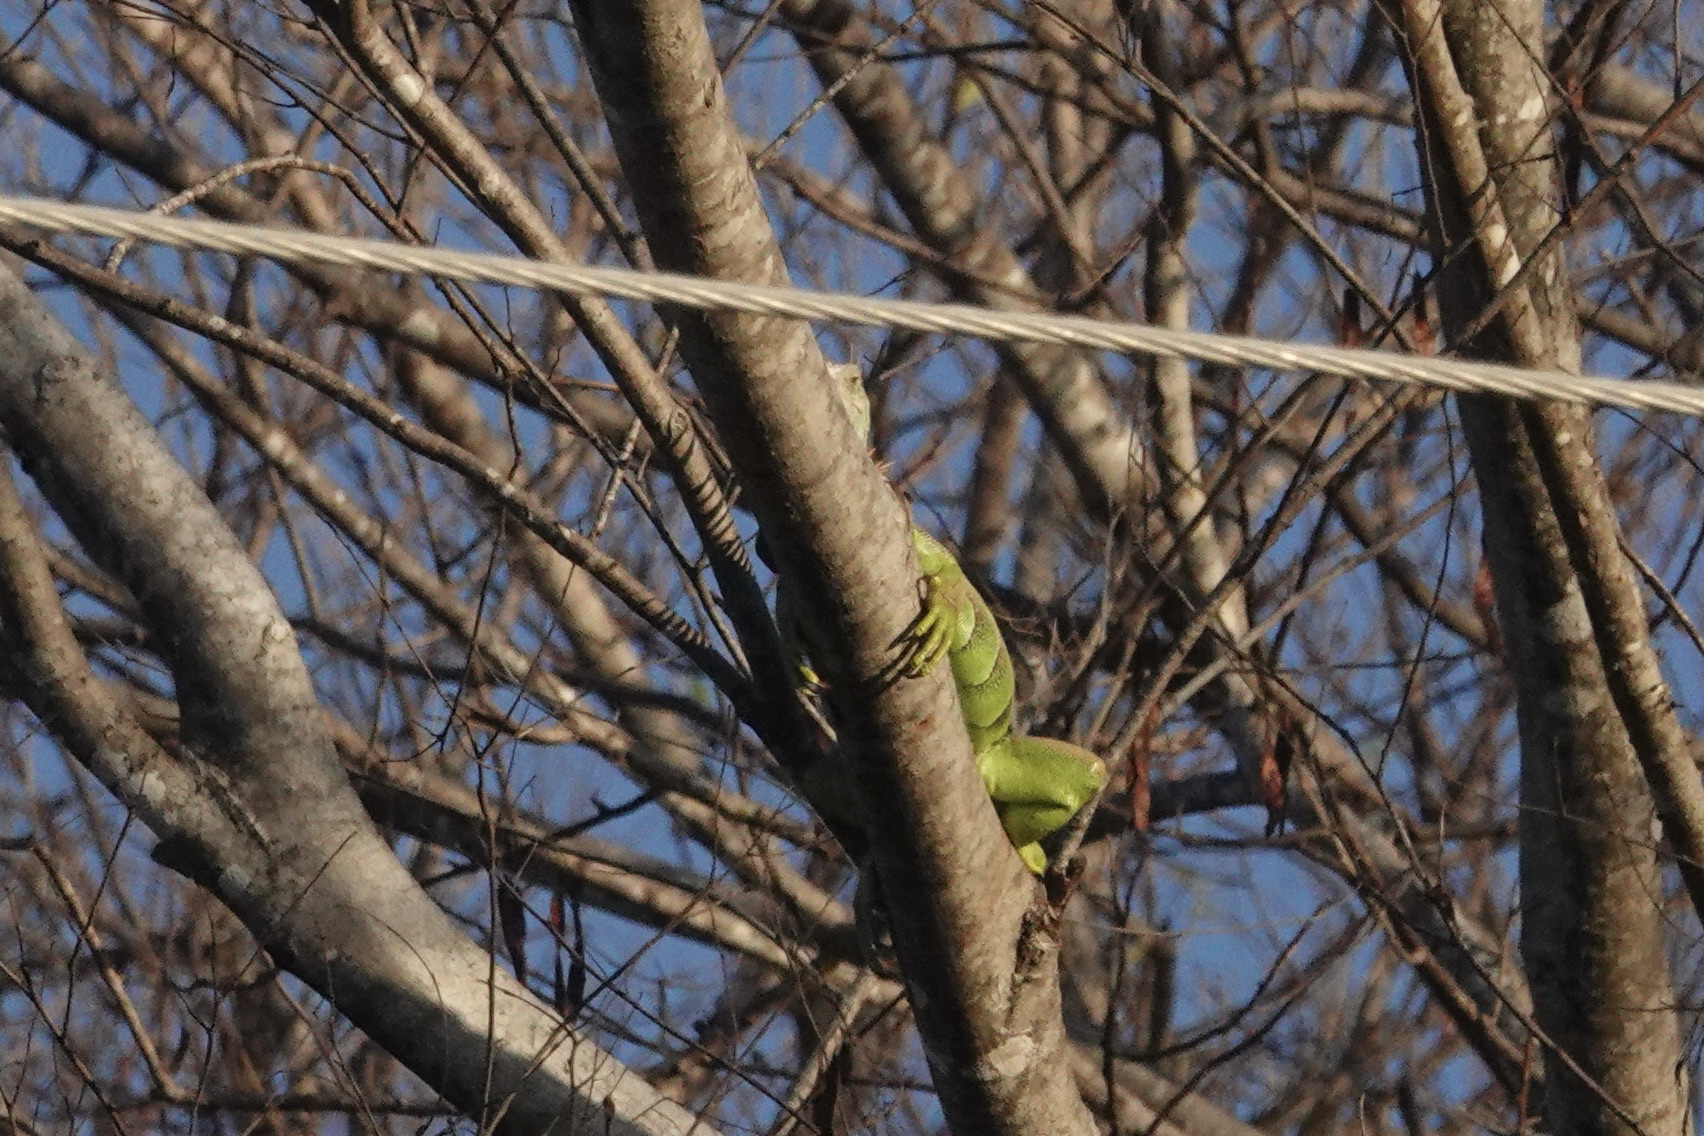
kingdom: Animalia
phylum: Chordata
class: Squamata
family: Iguanidae
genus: Iguana
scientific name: Iguana iguana
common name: Green iguana
